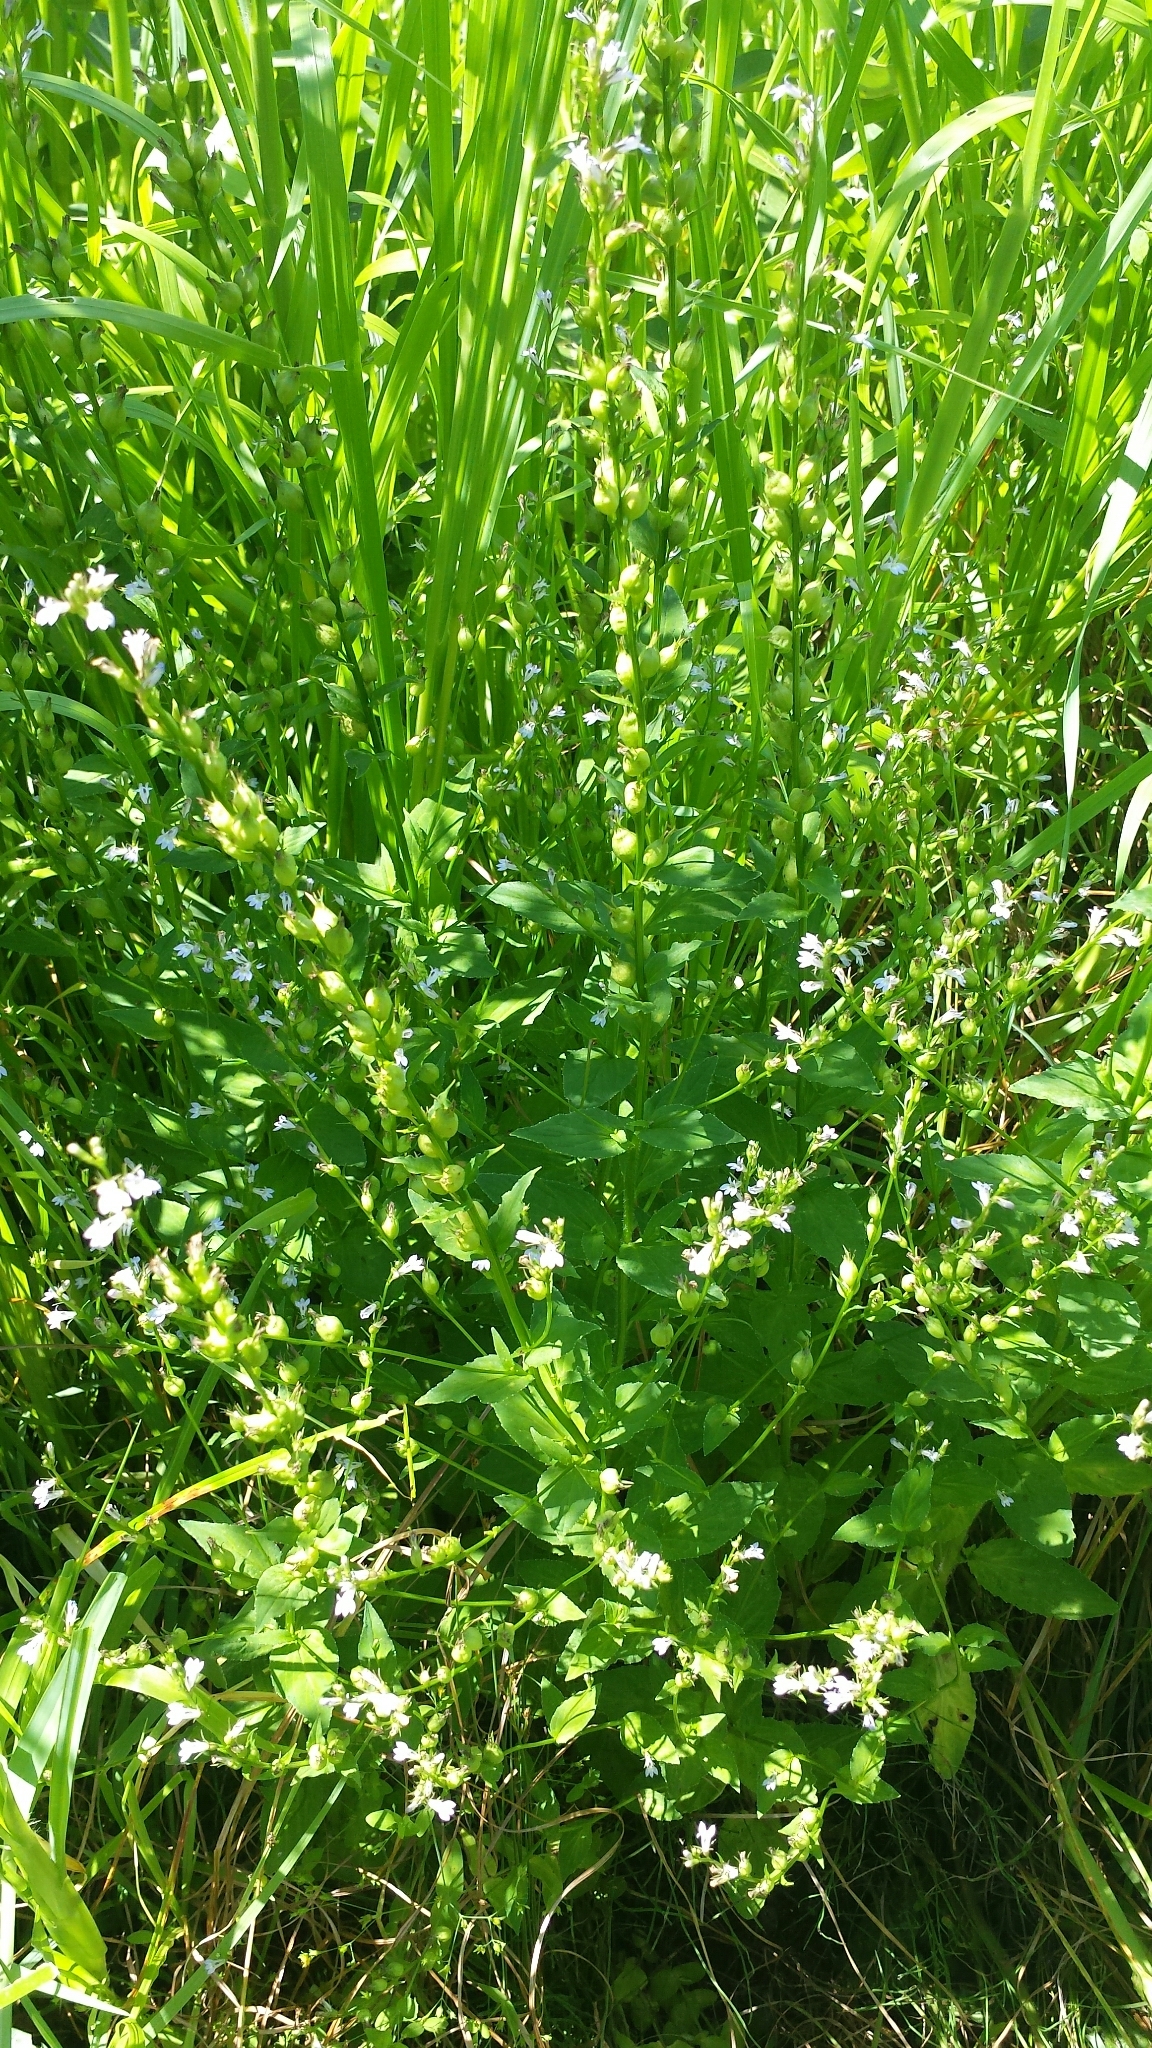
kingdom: Plantae
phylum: Tracheophyta
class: Magnoliopsida
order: Asterales
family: Campanulaceae
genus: Lobelia
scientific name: Lobelia inflata
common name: Indian tobacco
